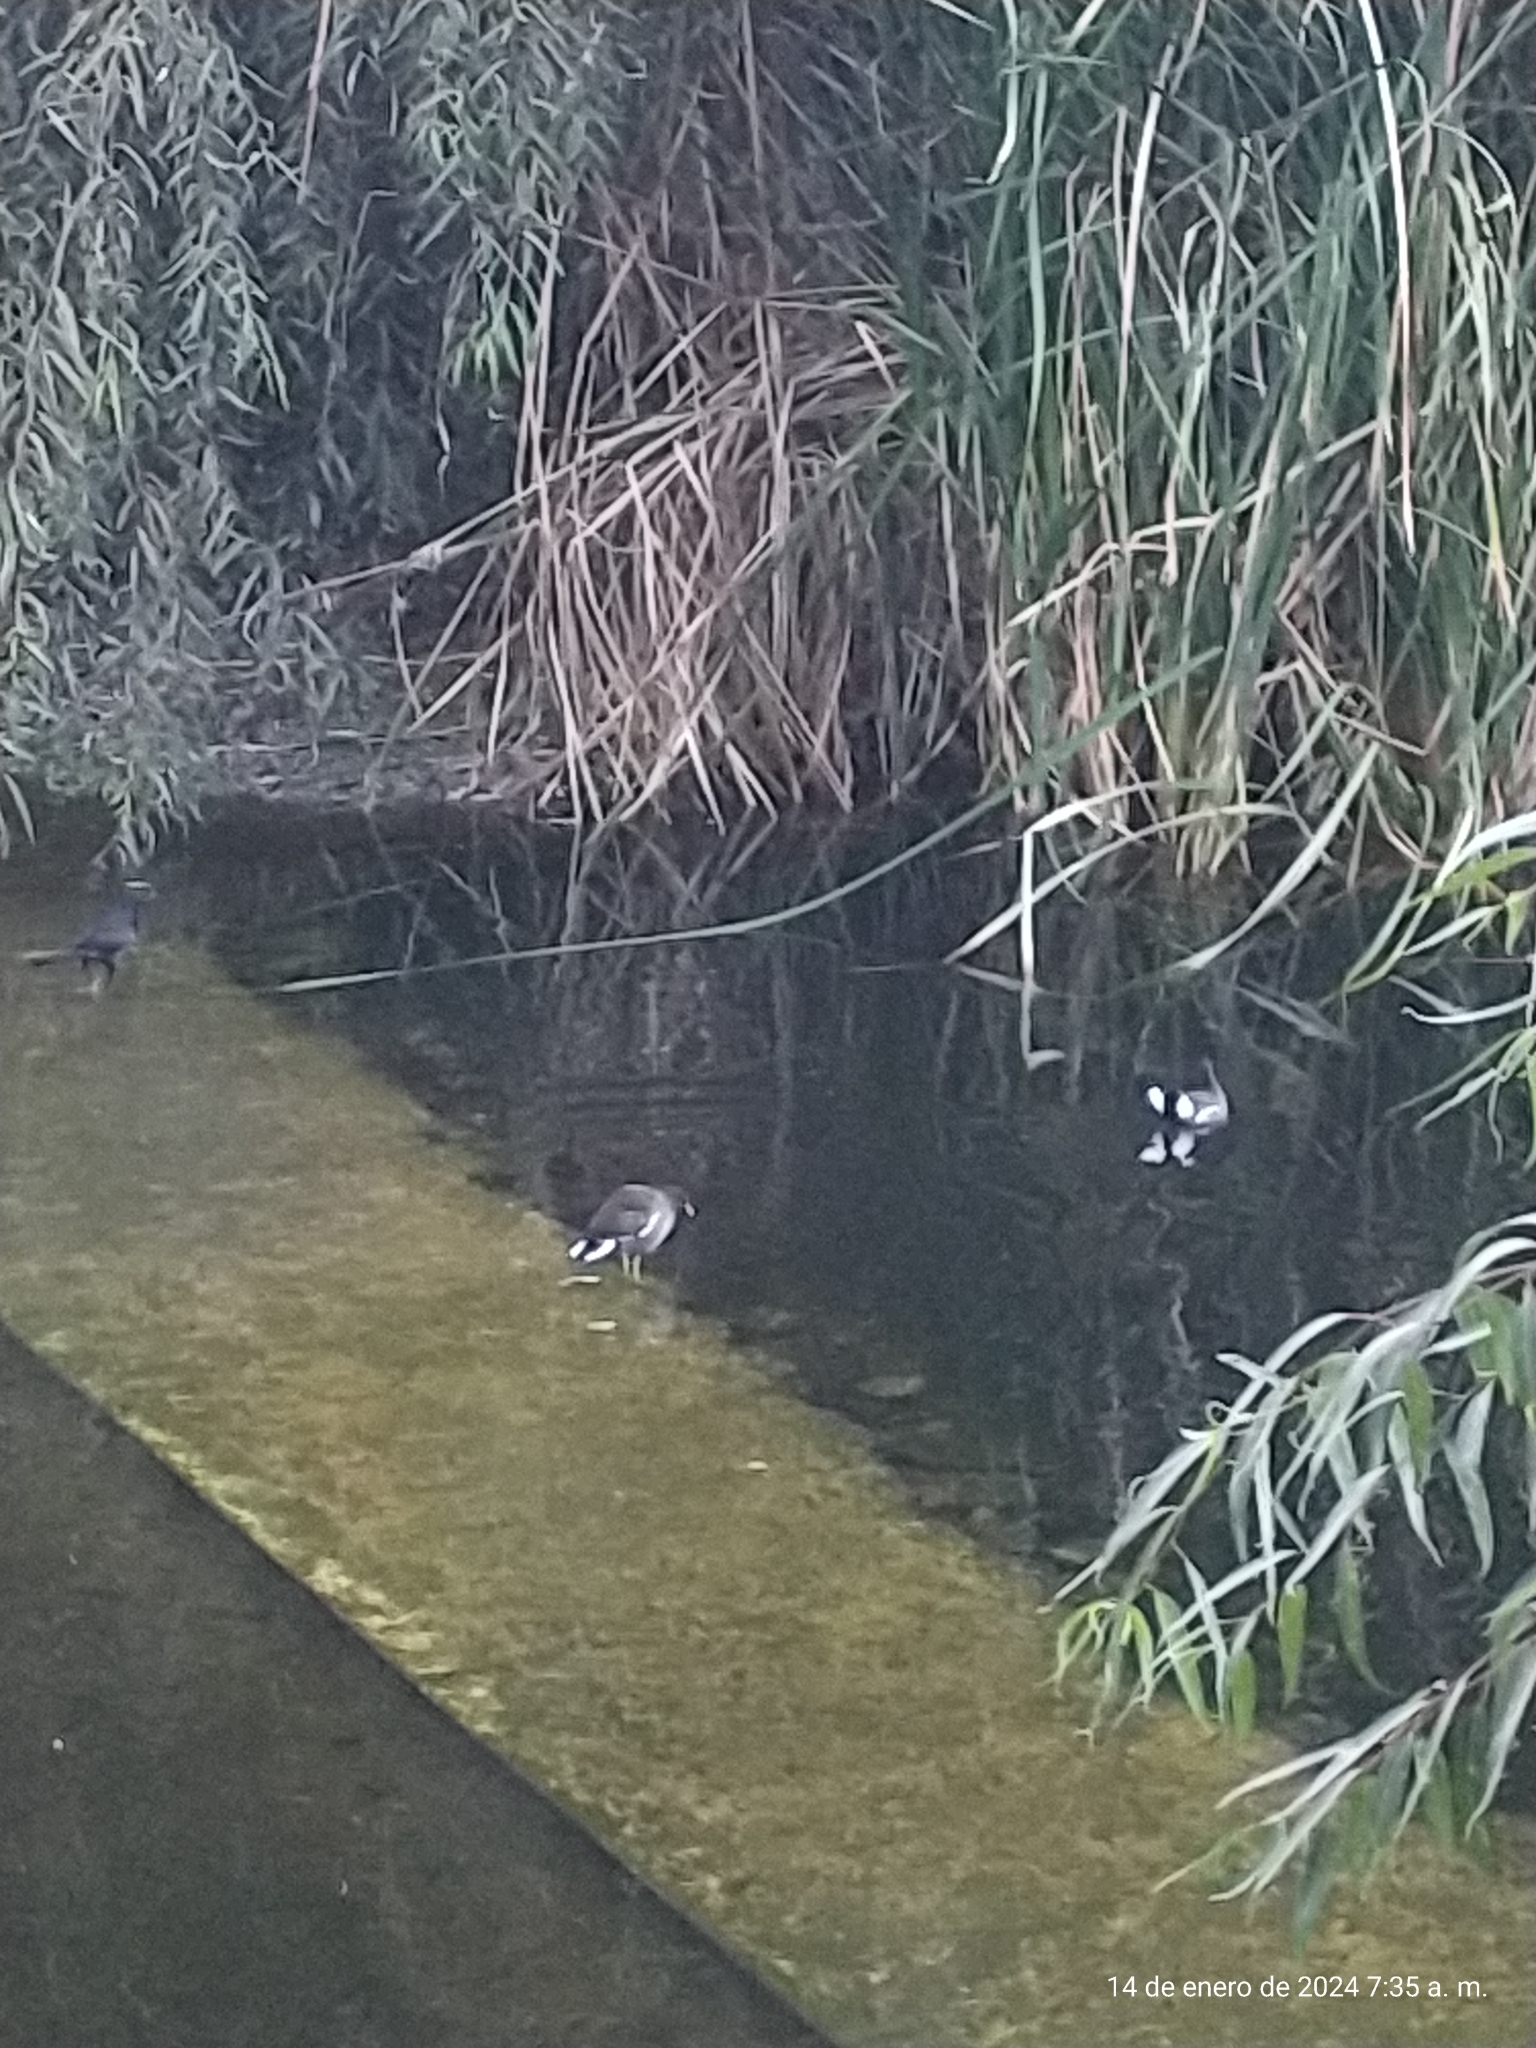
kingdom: Animalia
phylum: Chordata
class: Aves
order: Gruiformes
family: Rallidae
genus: Gallinula
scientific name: Gallinula chloropus
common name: Common moorhen
